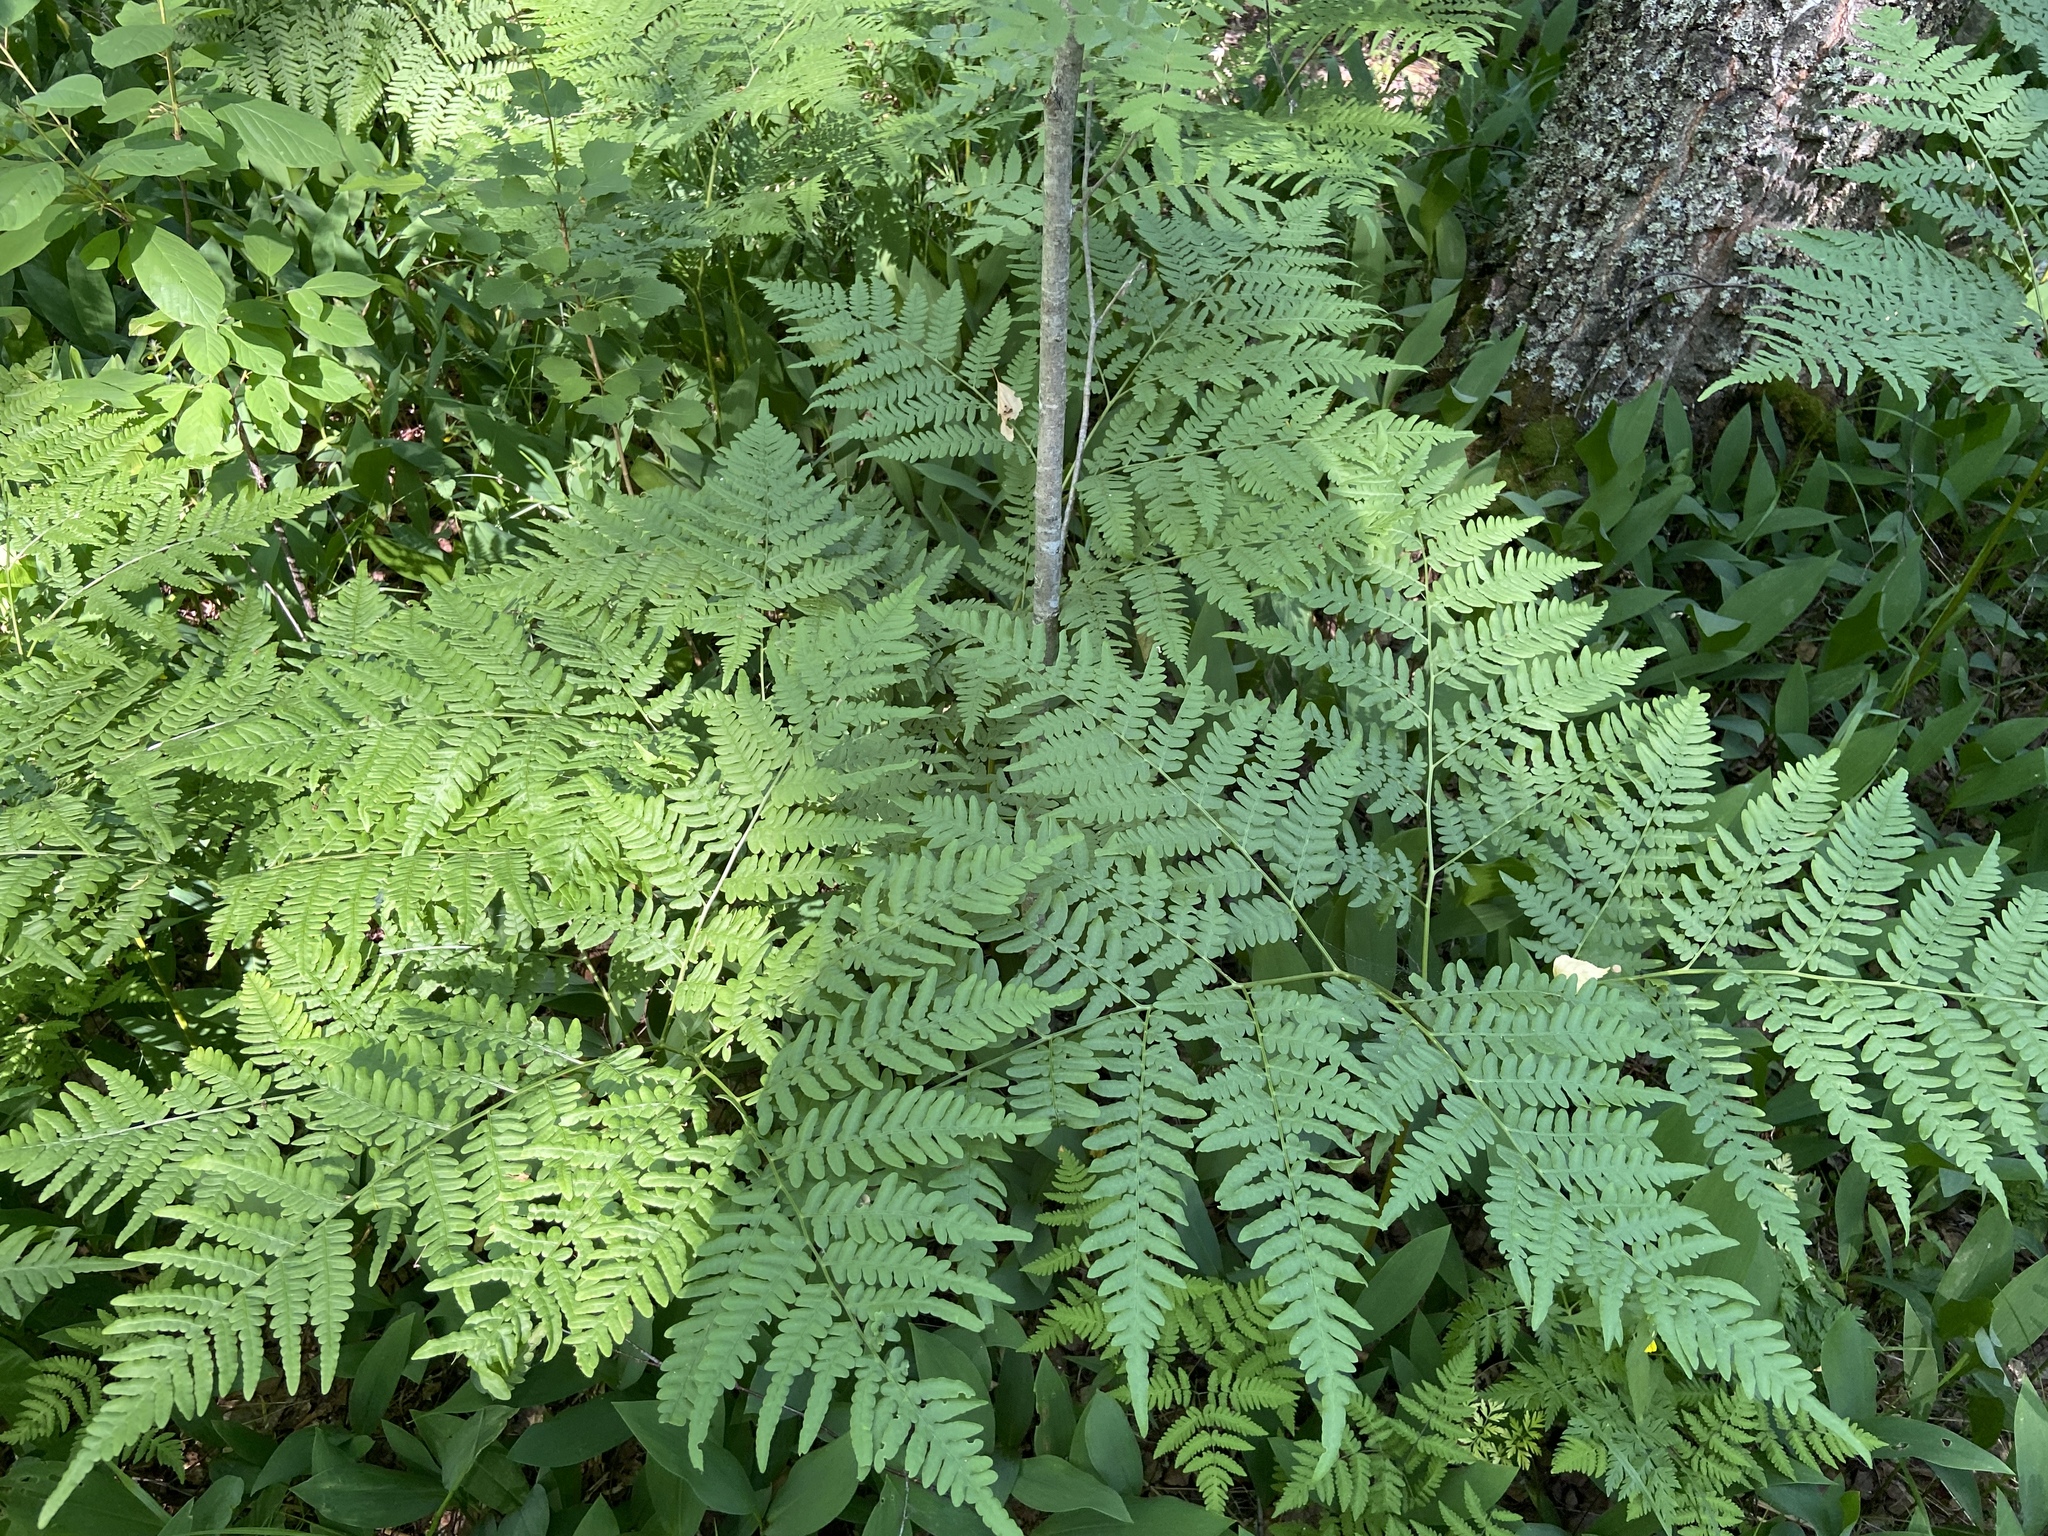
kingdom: Plantae
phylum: Tracheophyta
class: Polypodiopsida
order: Polypodiales
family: Dennstaedtiaceae
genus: Pteridium
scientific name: Pteridium aquilinum
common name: Bracken
